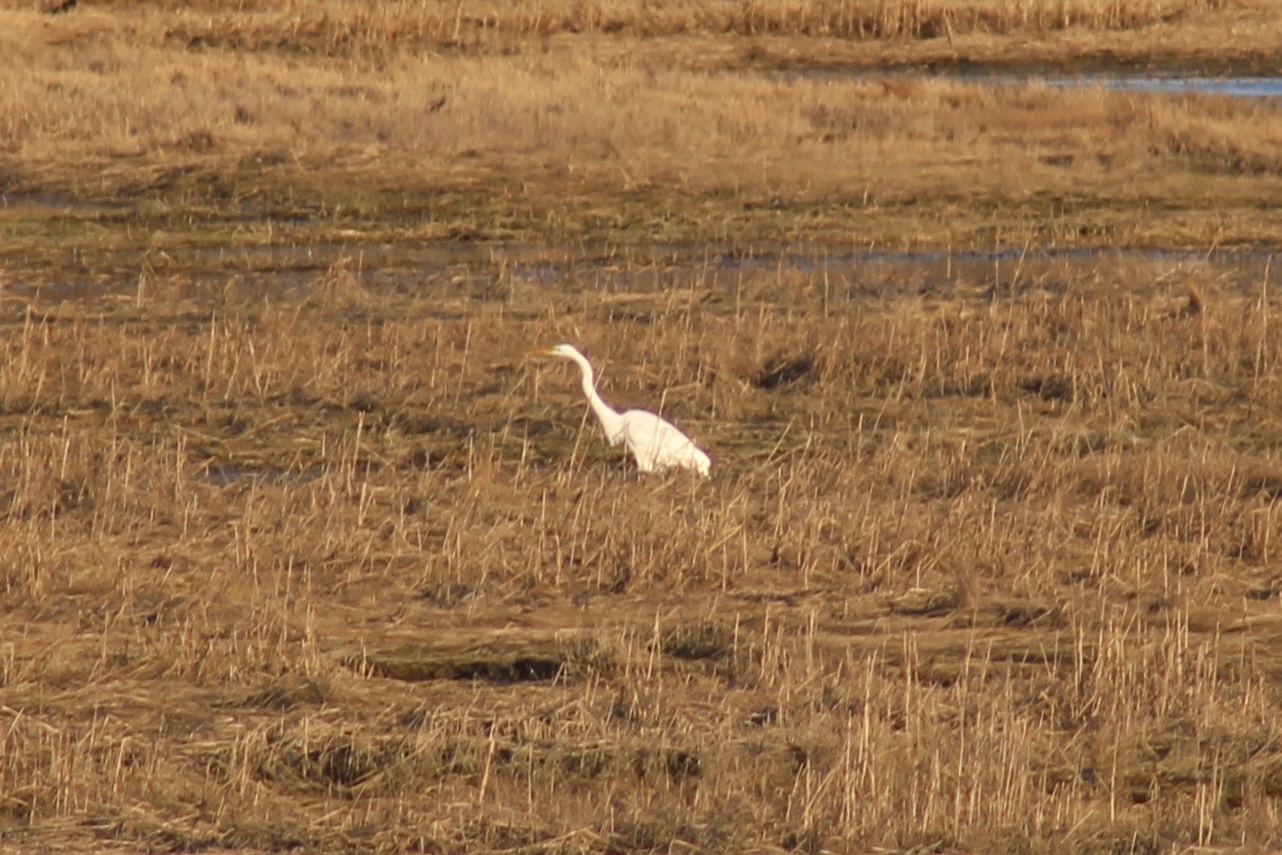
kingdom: Animalia
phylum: Chordata
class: Aves
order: Pelecaniformes
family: Ardeidae
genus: Ardea
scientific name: Ardea alba
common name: Great egret
